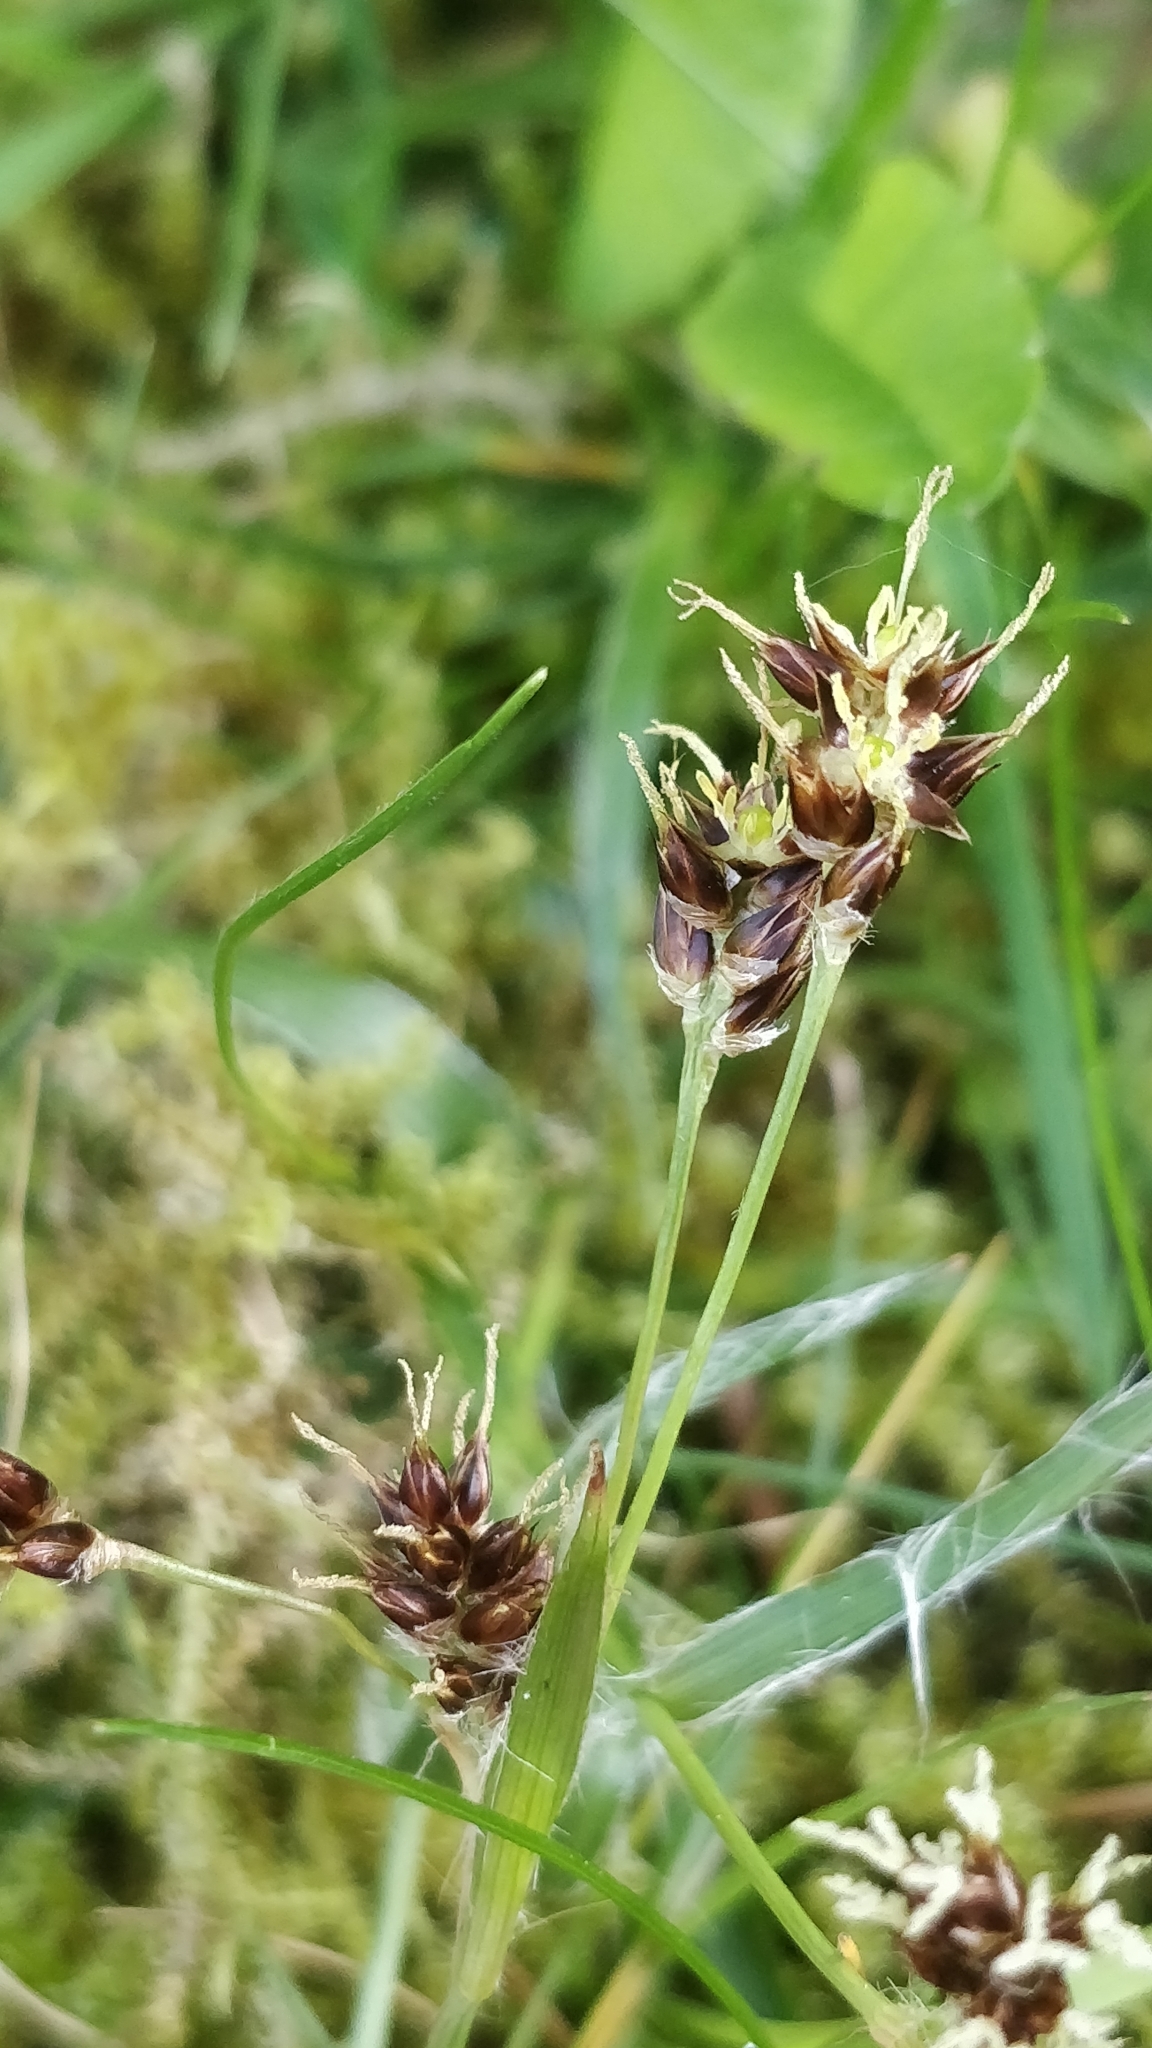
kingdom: Plantae
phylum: Tracheophyta
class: Liliopsida
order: Poales
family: Juncaceae
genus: Luzula
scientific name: Luzula campestris
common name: Field wood-rush
